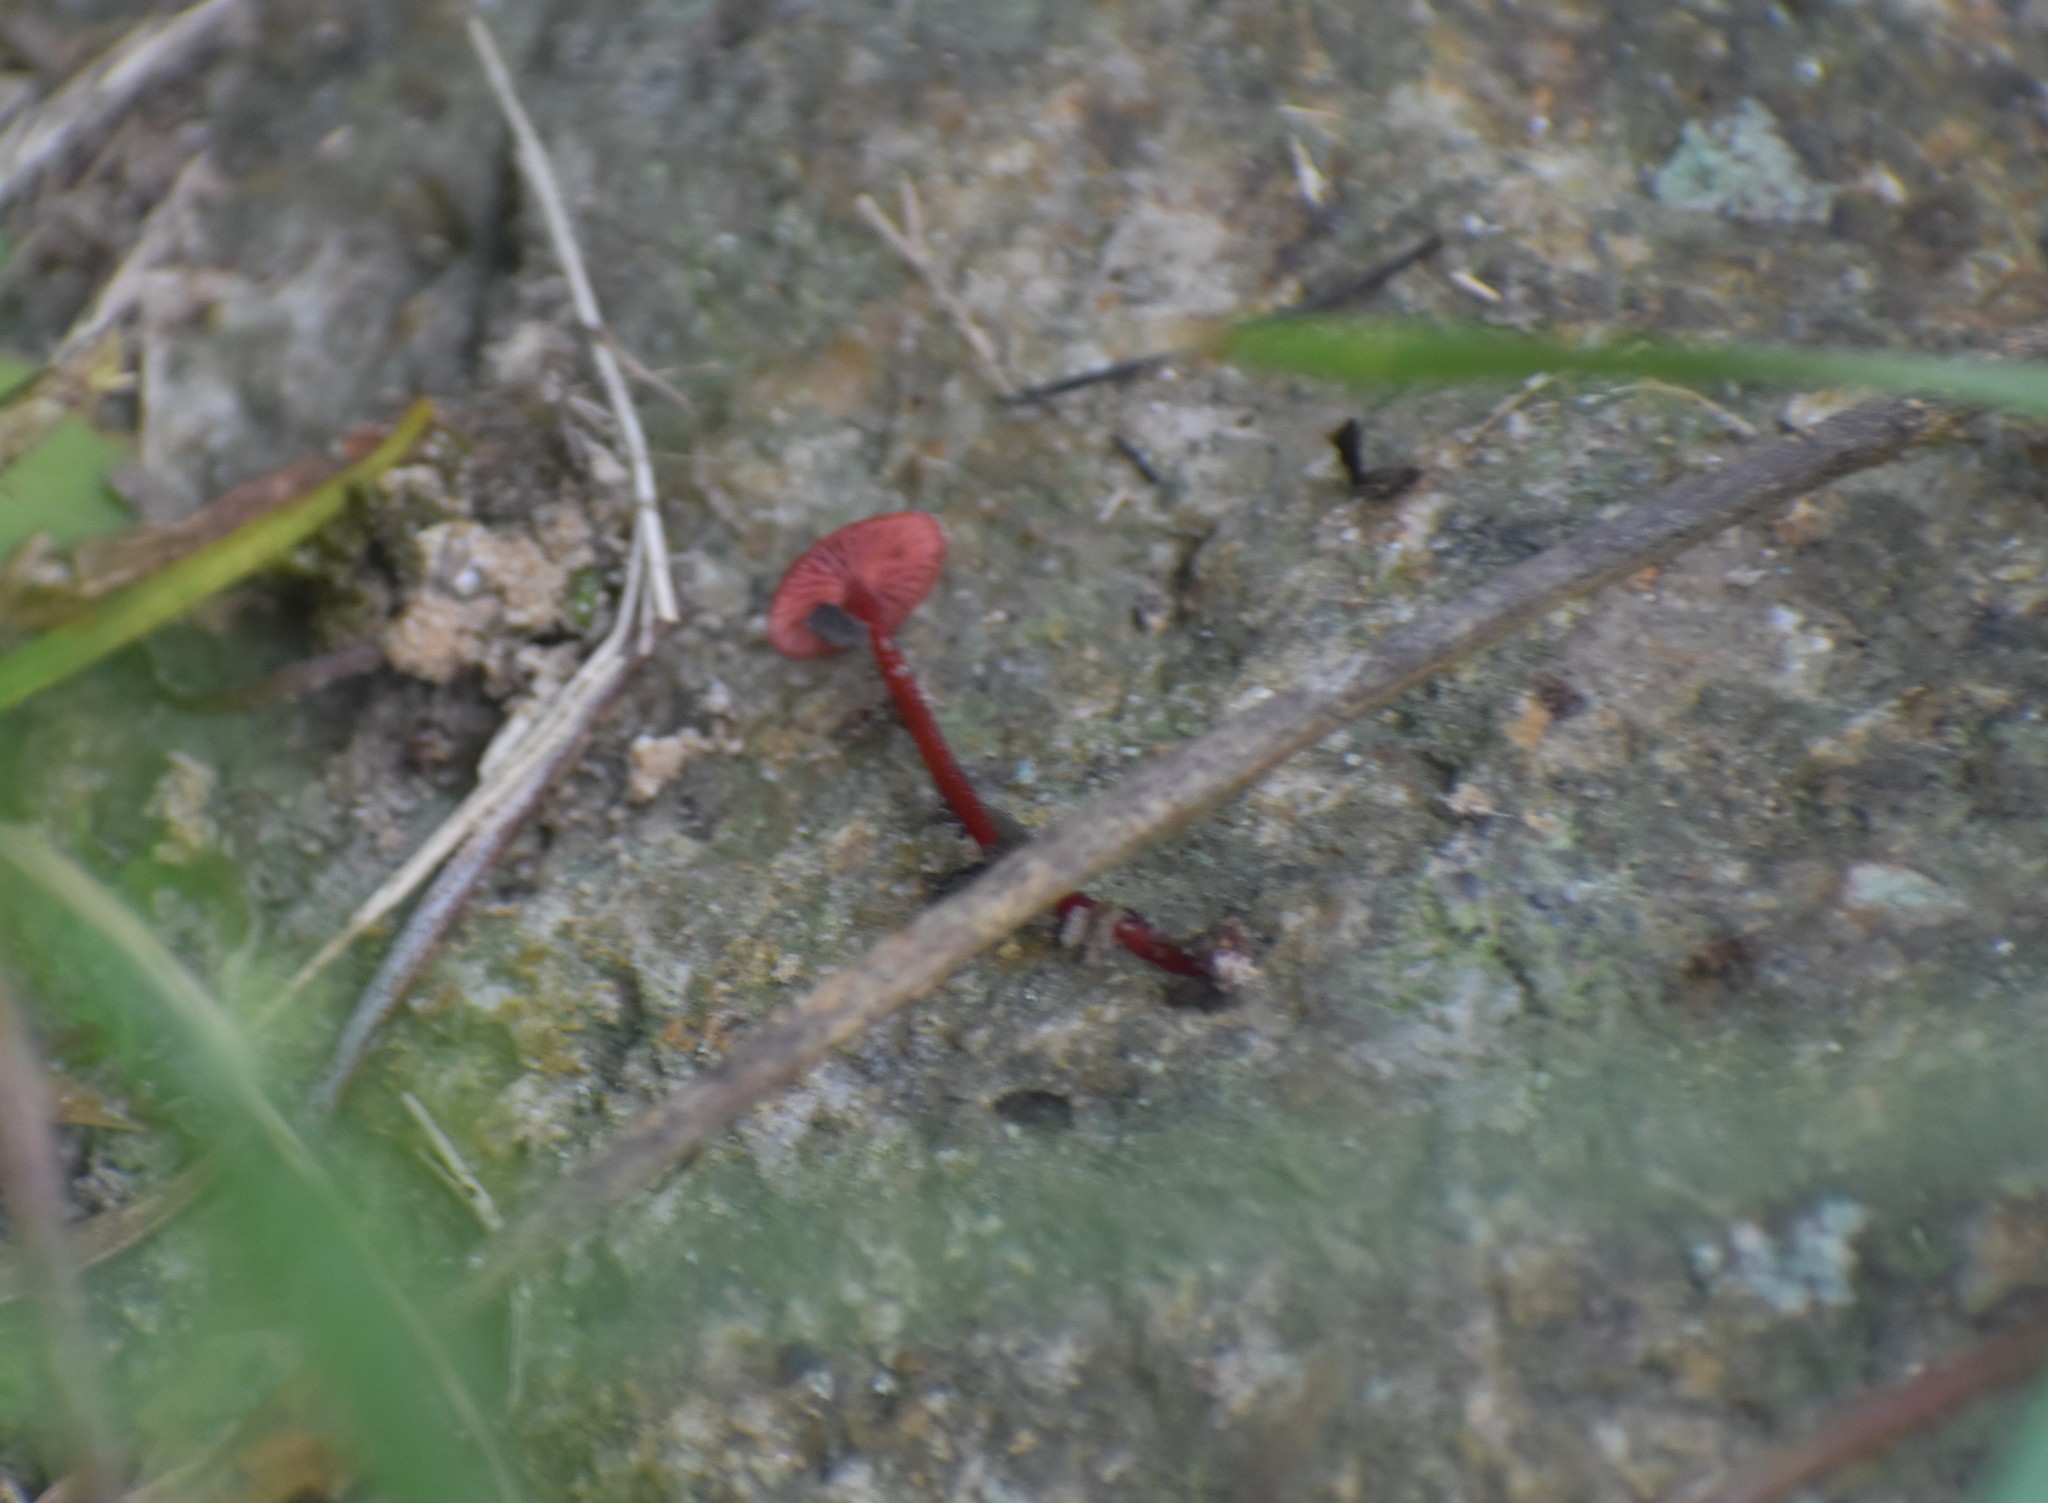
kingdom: Fungi
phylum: Basidiomycota
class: Agaricomycetes
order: Agaricales
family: Mycenaceae
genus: Cruentomycena
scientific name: Cruentomycena viscidocruenta
